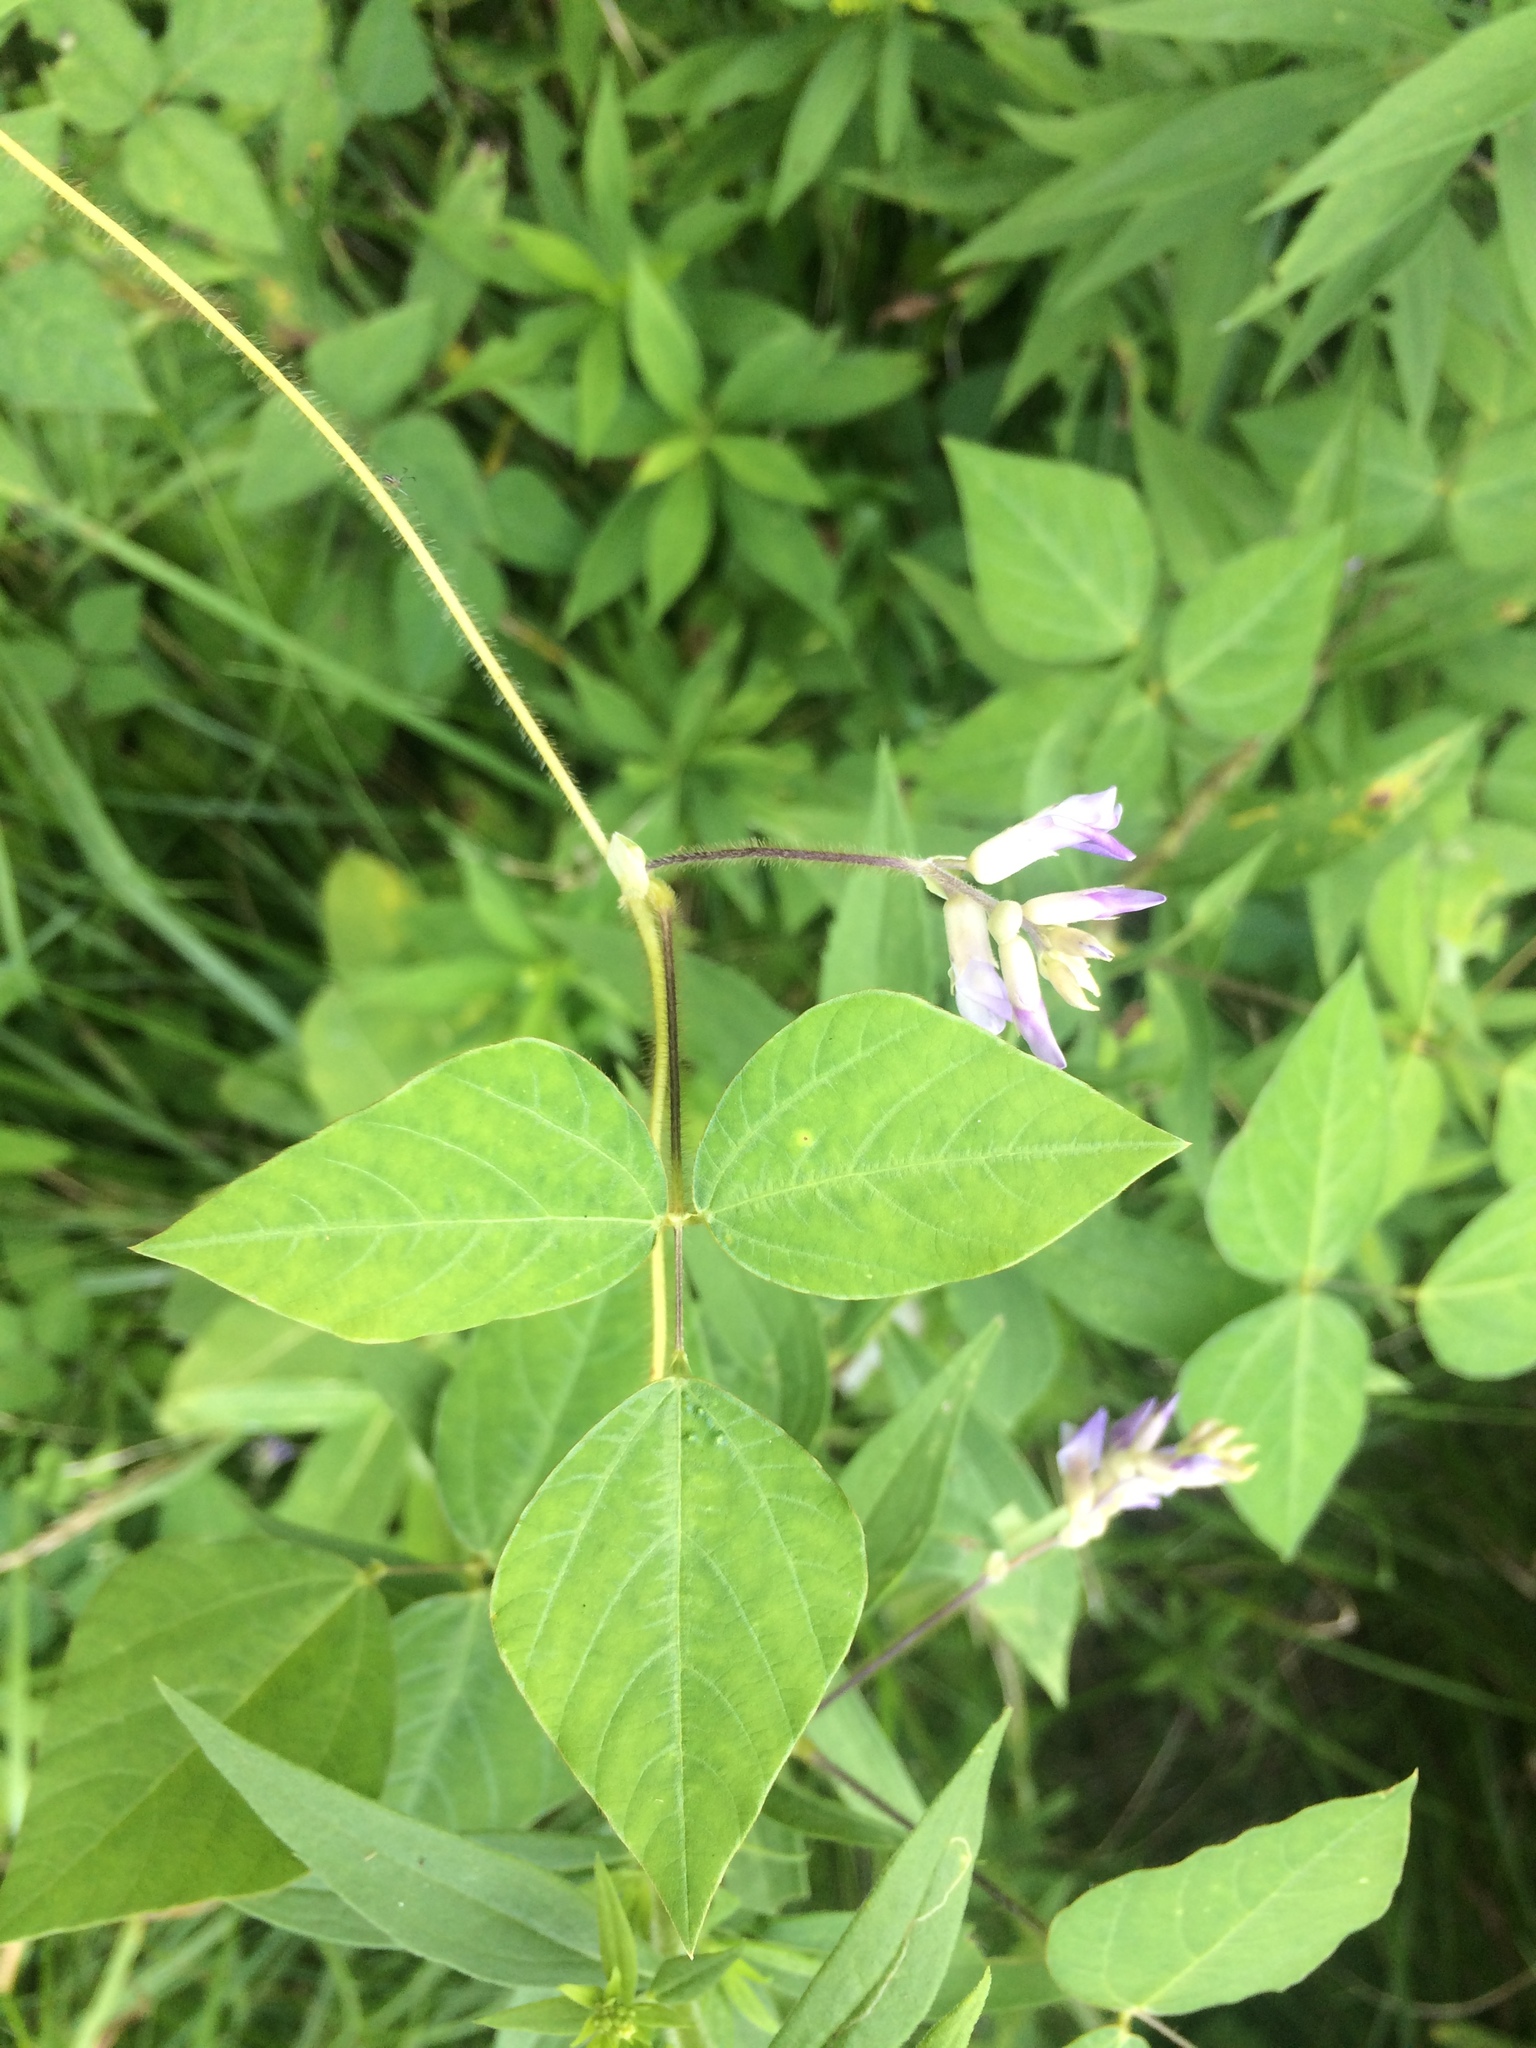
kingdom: Plantae
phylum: Tracheophyta
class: Magnoliopsida
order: Fabales
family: Fabaceae
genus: Amphicarpaea
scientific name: Amphicarpaea bracteata
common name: American hog peanut
